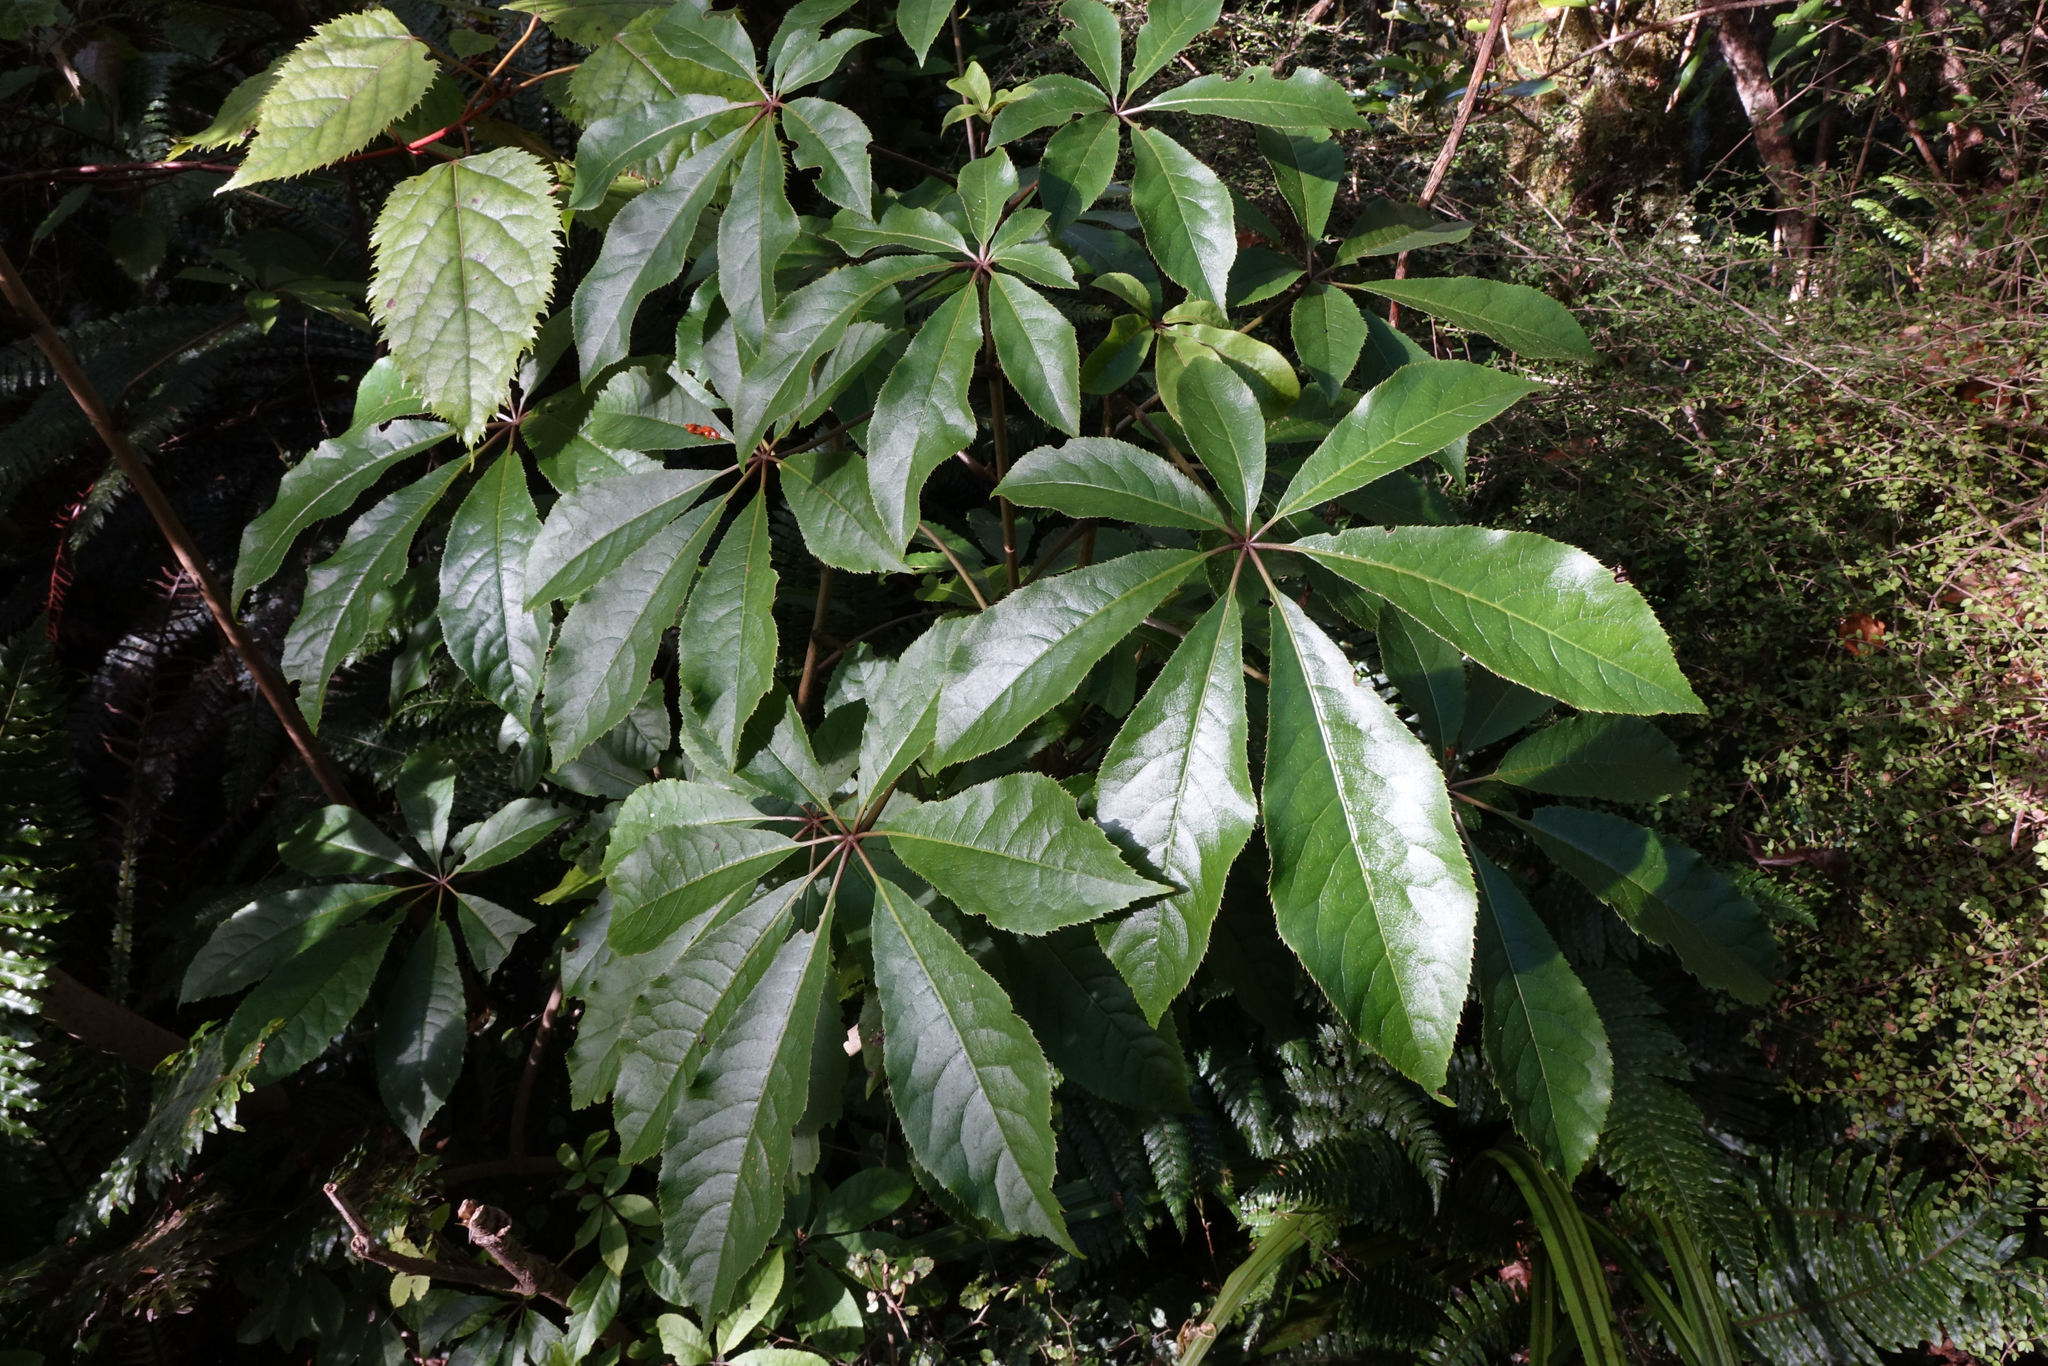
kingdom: Plantae
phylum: Tracheophyta
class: Magnoliopsida
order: Apiales
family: Araliaceae
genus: Schefflera
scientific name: Schefflera digitata
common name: Pate
